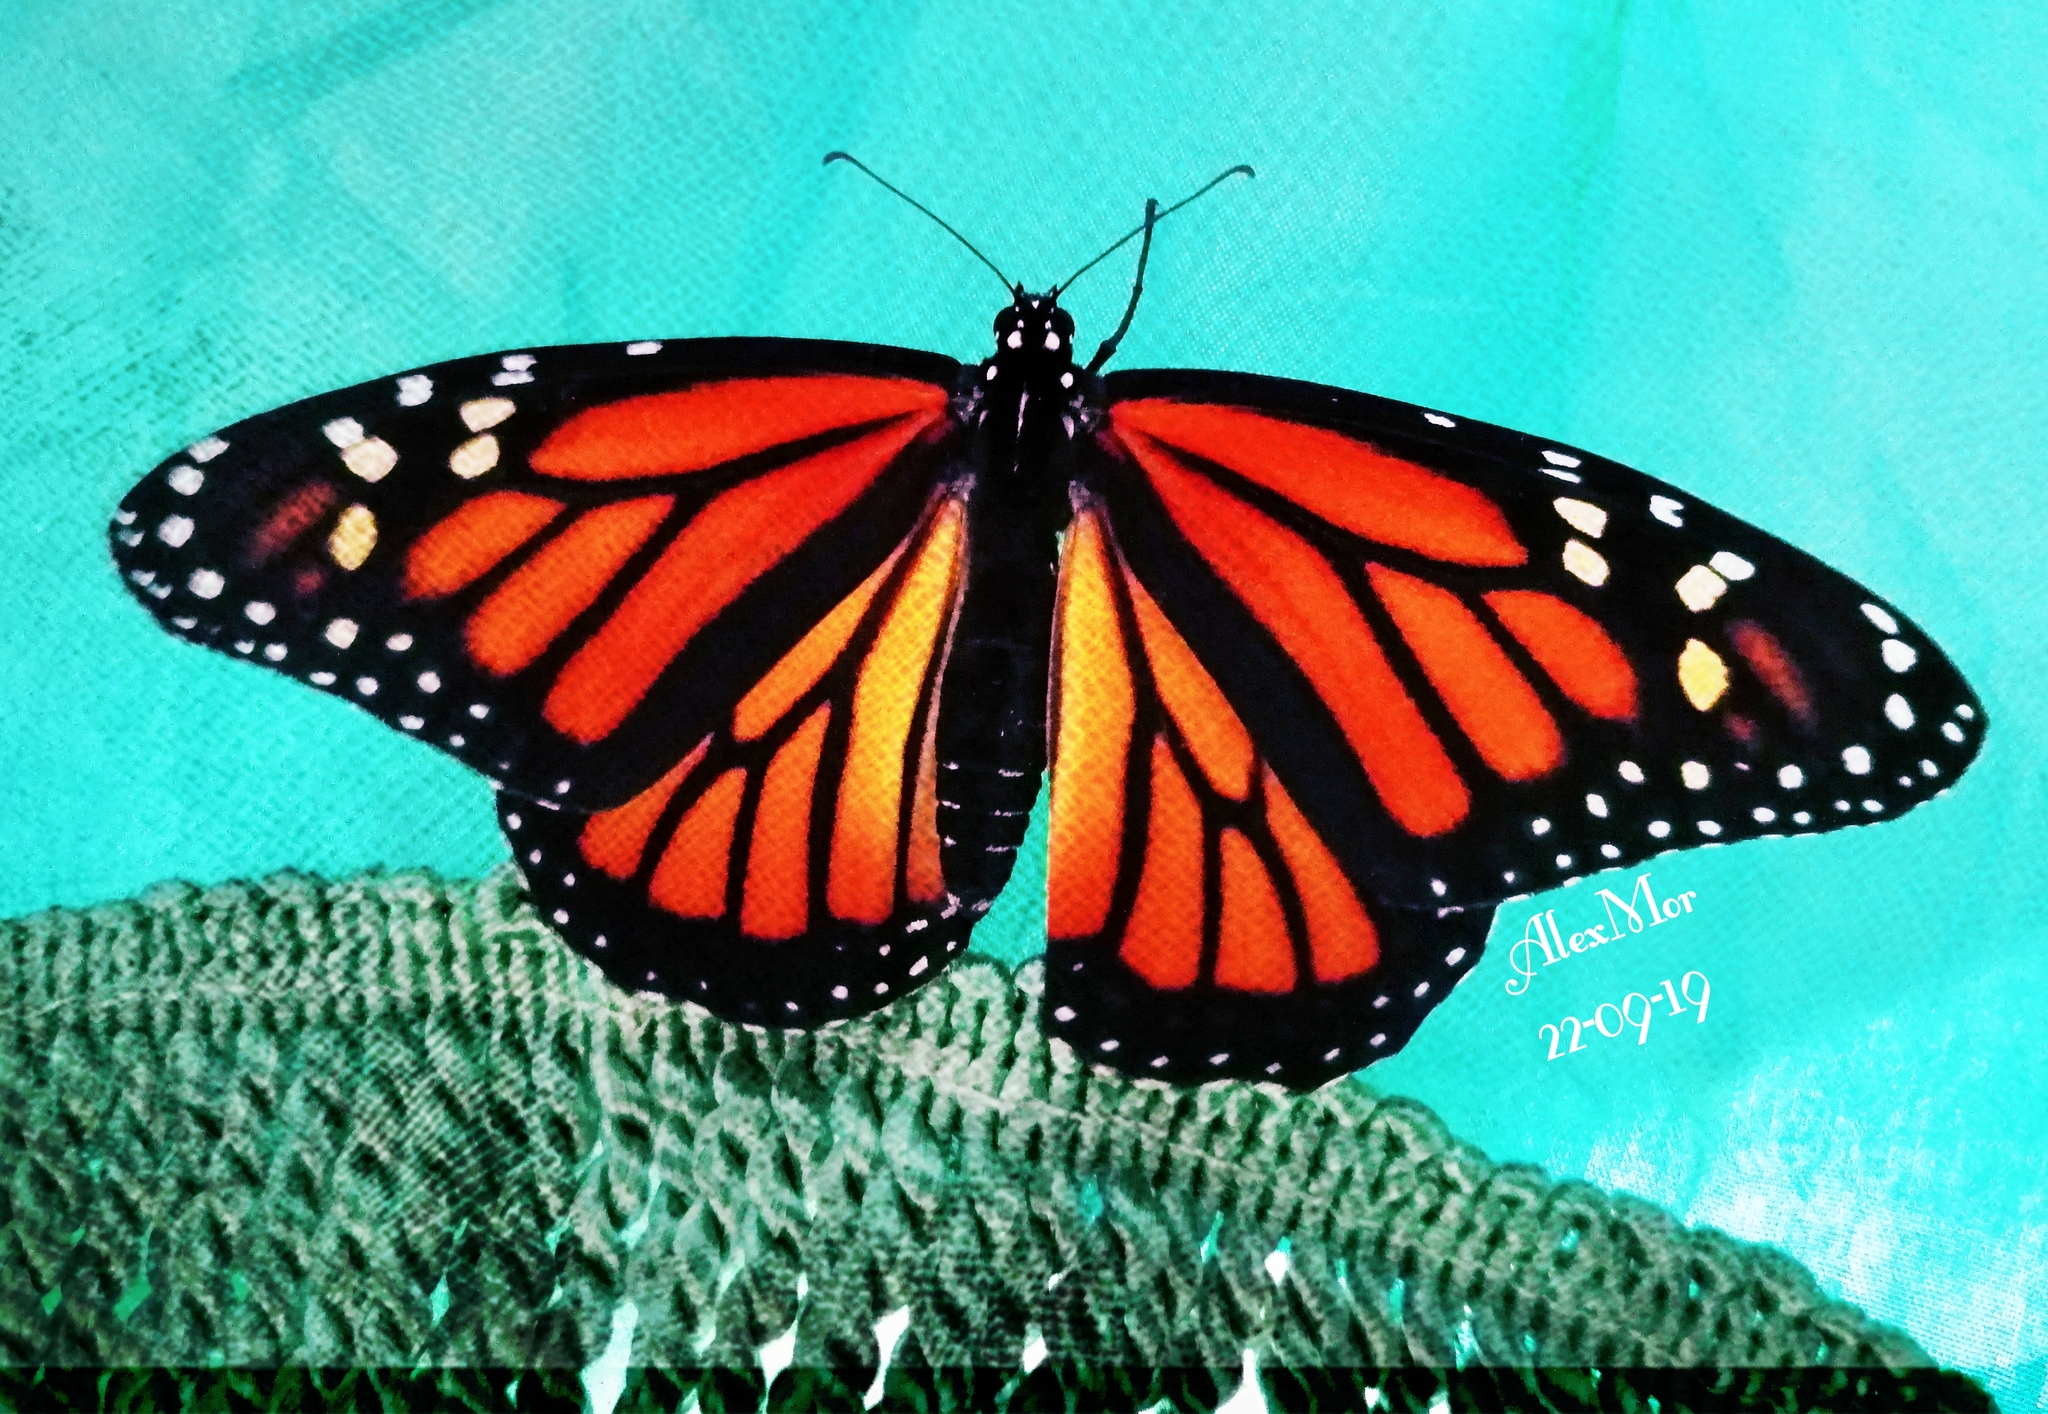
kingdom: Animalia
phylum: Arthropoda
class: Insecta
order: Lepidoptera
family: Nymphalidae
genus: Danaus
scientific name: Danaus plexippus
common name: Monarch
